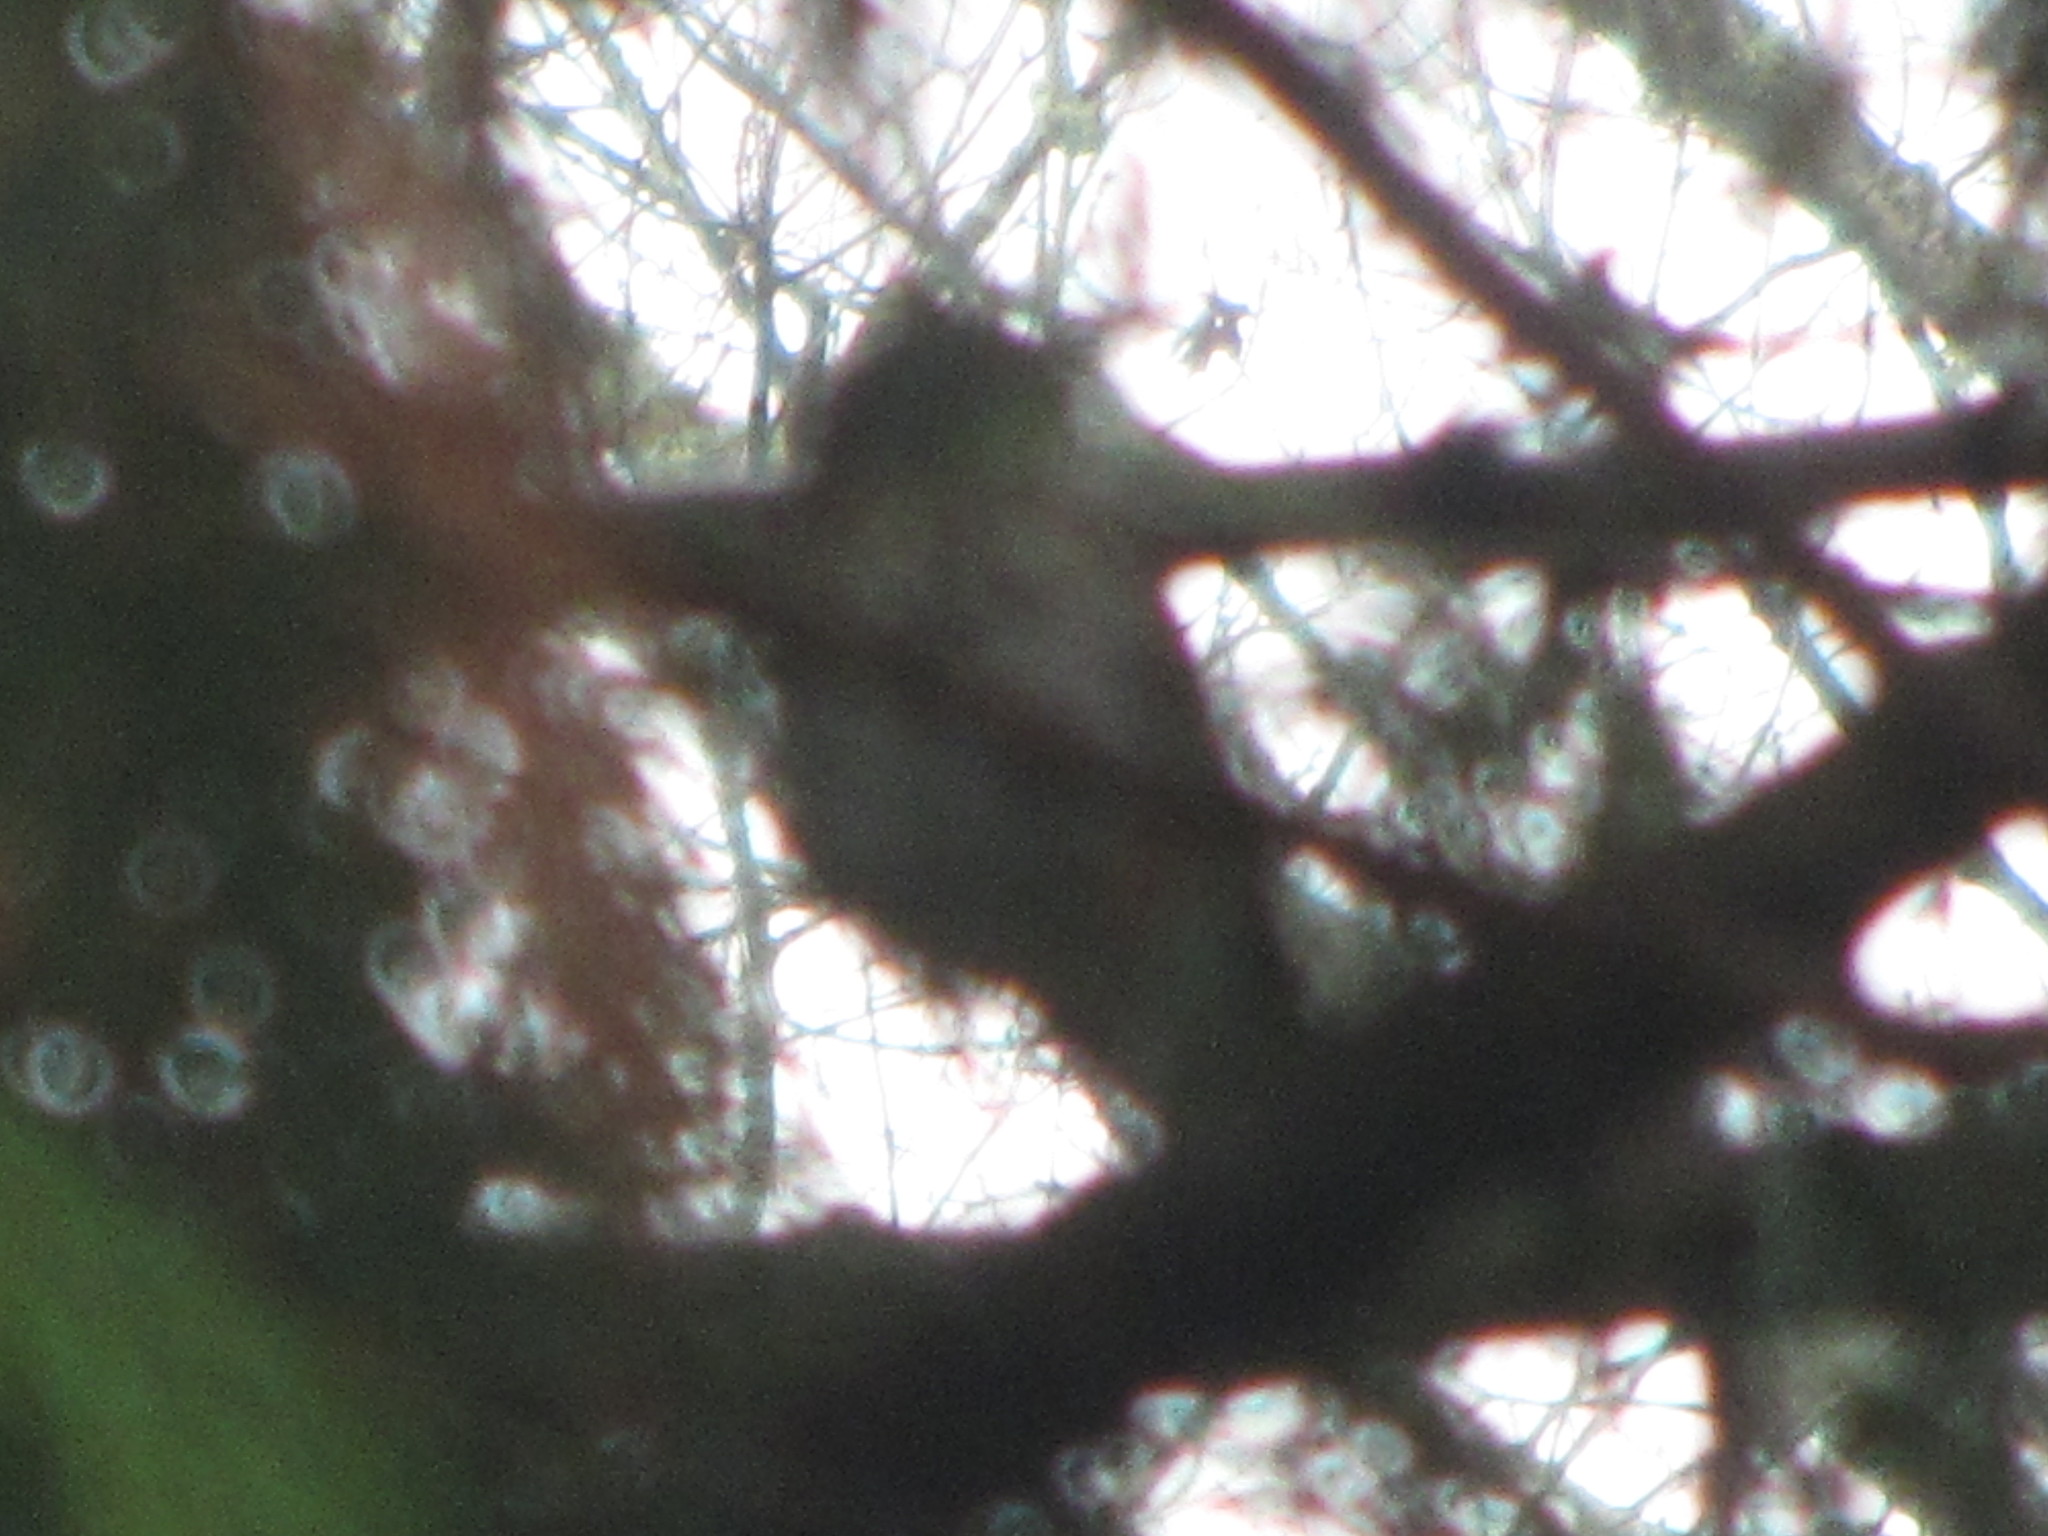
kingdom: Animalia
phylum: Chordata
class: Aves
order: Passeriformes
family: Turdidae
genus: Catharus
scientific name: Catharus guttatus
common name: Hermit thrush
